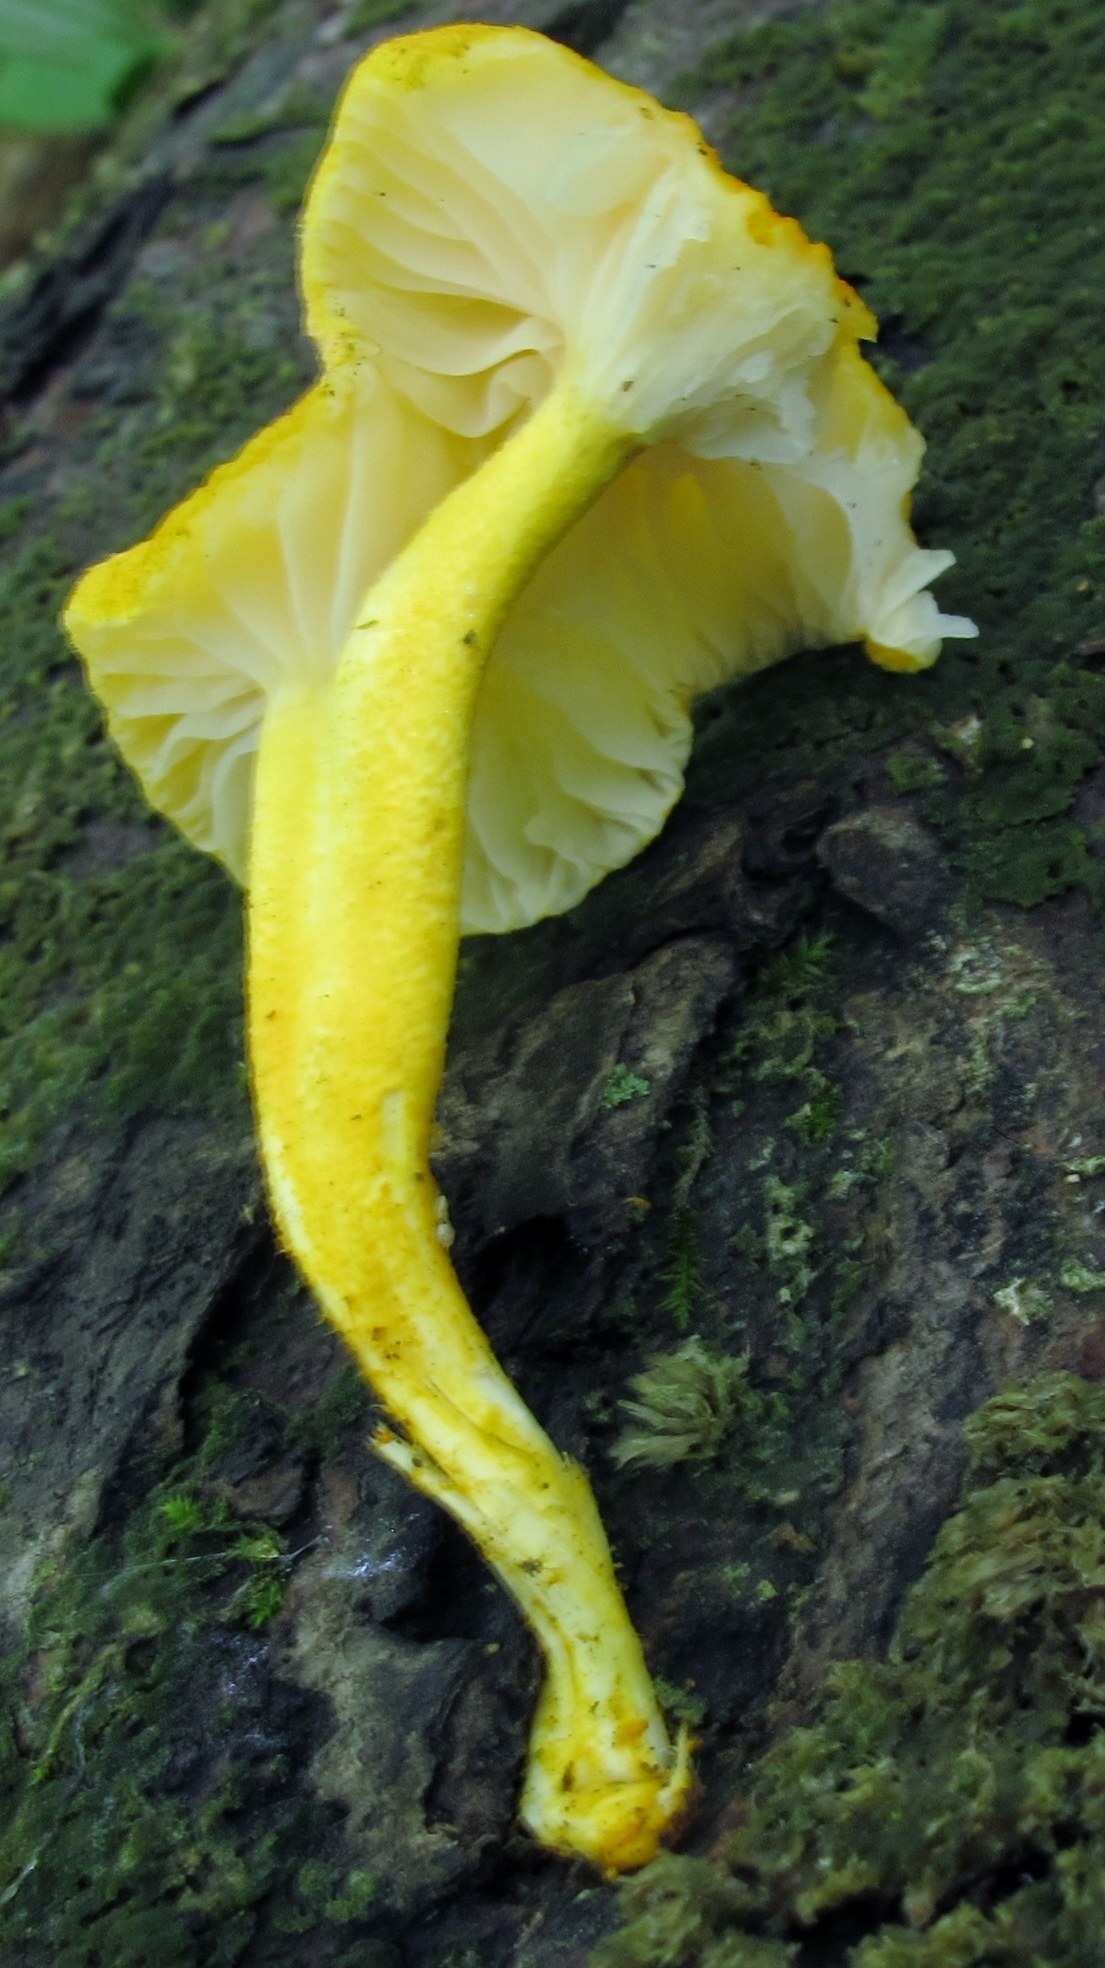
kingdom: Fungi
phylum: Basidiomycota
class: Agaricomycetes
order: Agaricales
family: Physalacriaceae
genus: Cyptotrama
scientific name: Cyptotrama chrysopepla
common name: Golden coincap
